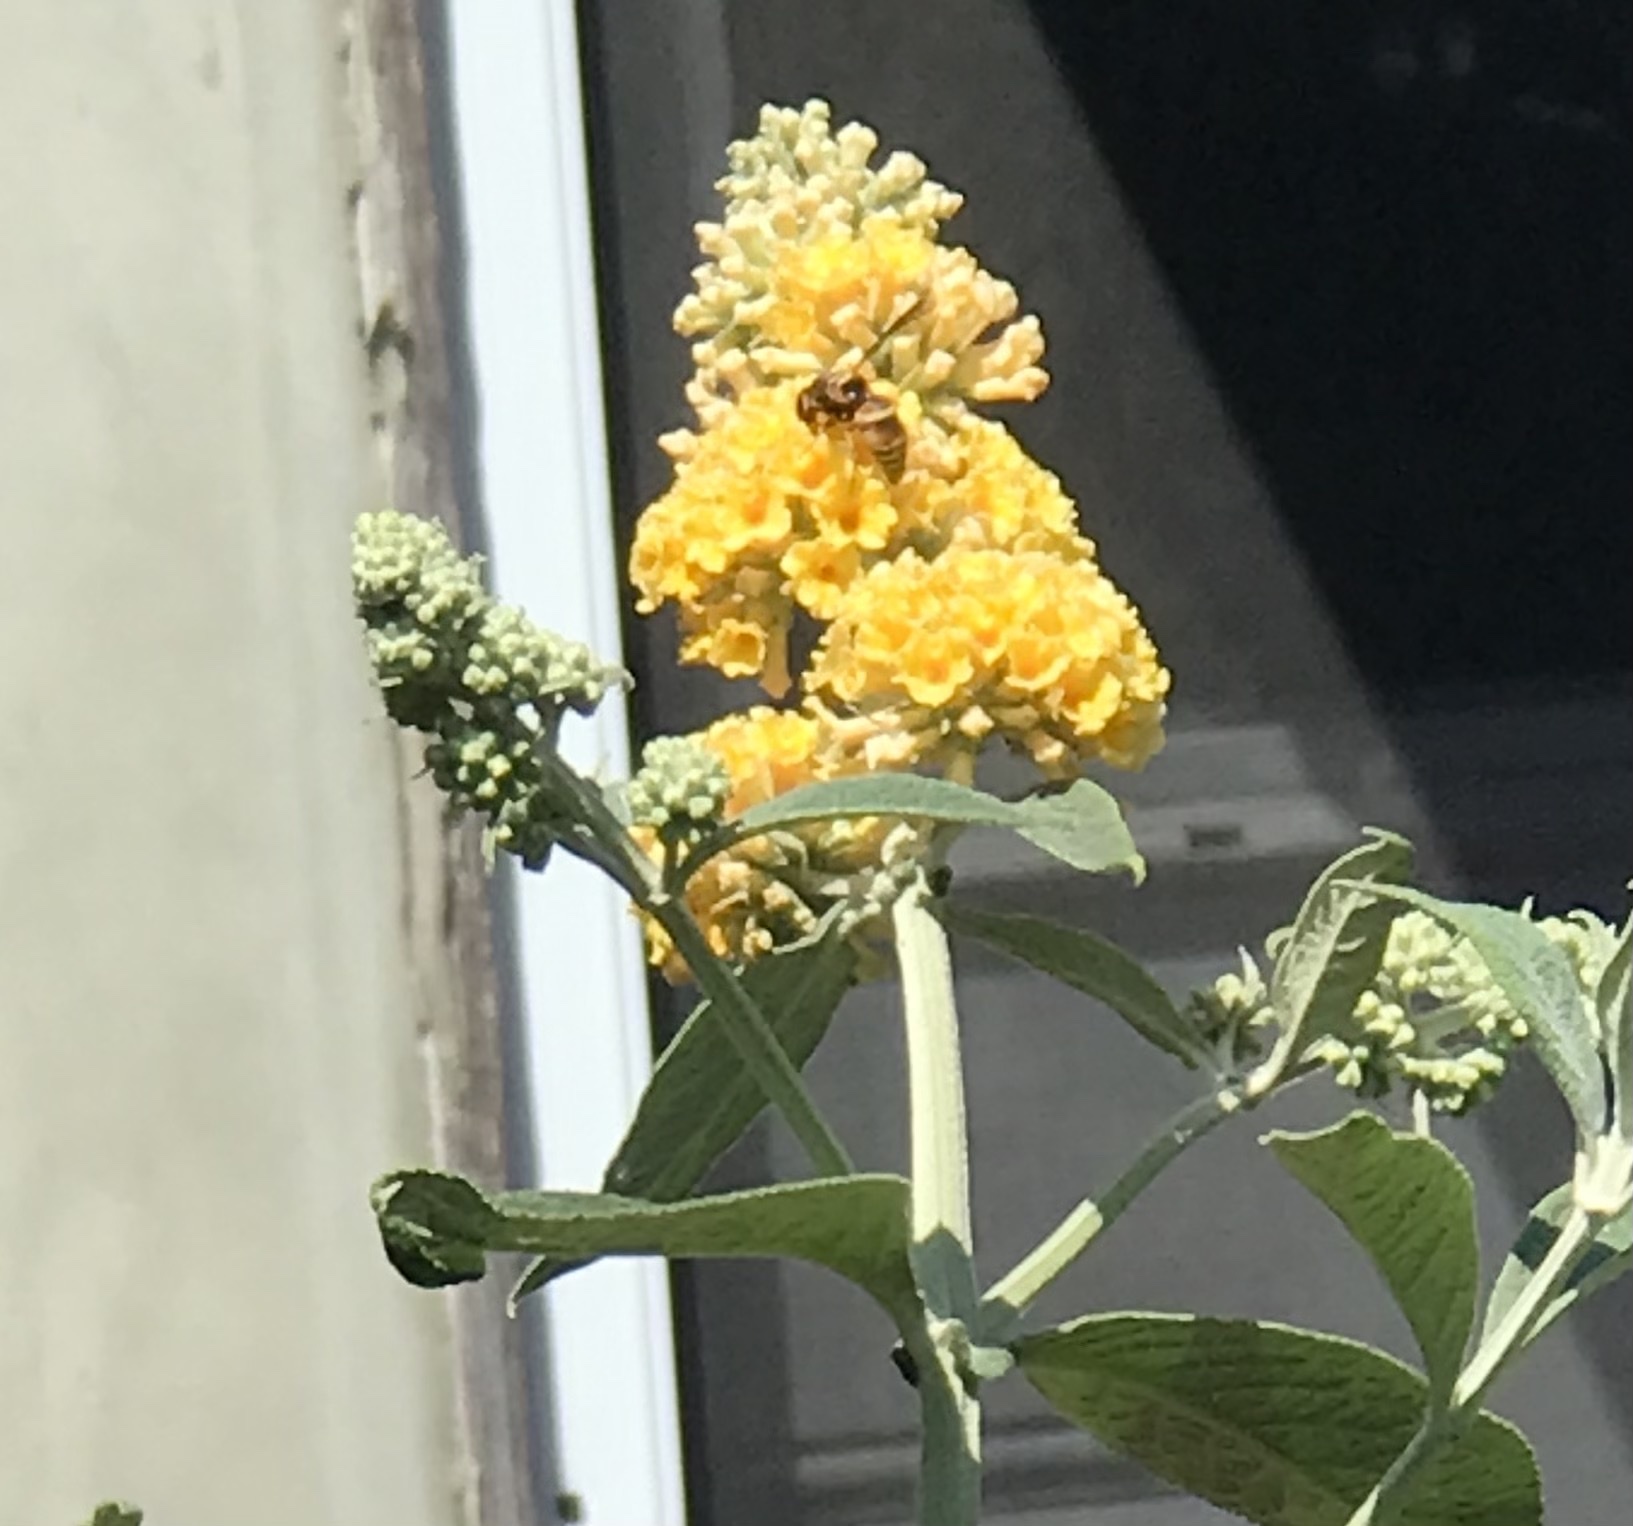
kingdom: Animalia
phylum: Arthropoda
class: Insecta
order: Hymenoptera
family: Eumenidae
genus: Euodynerus
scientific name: Euodynerus hidalgo
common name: Wasp
